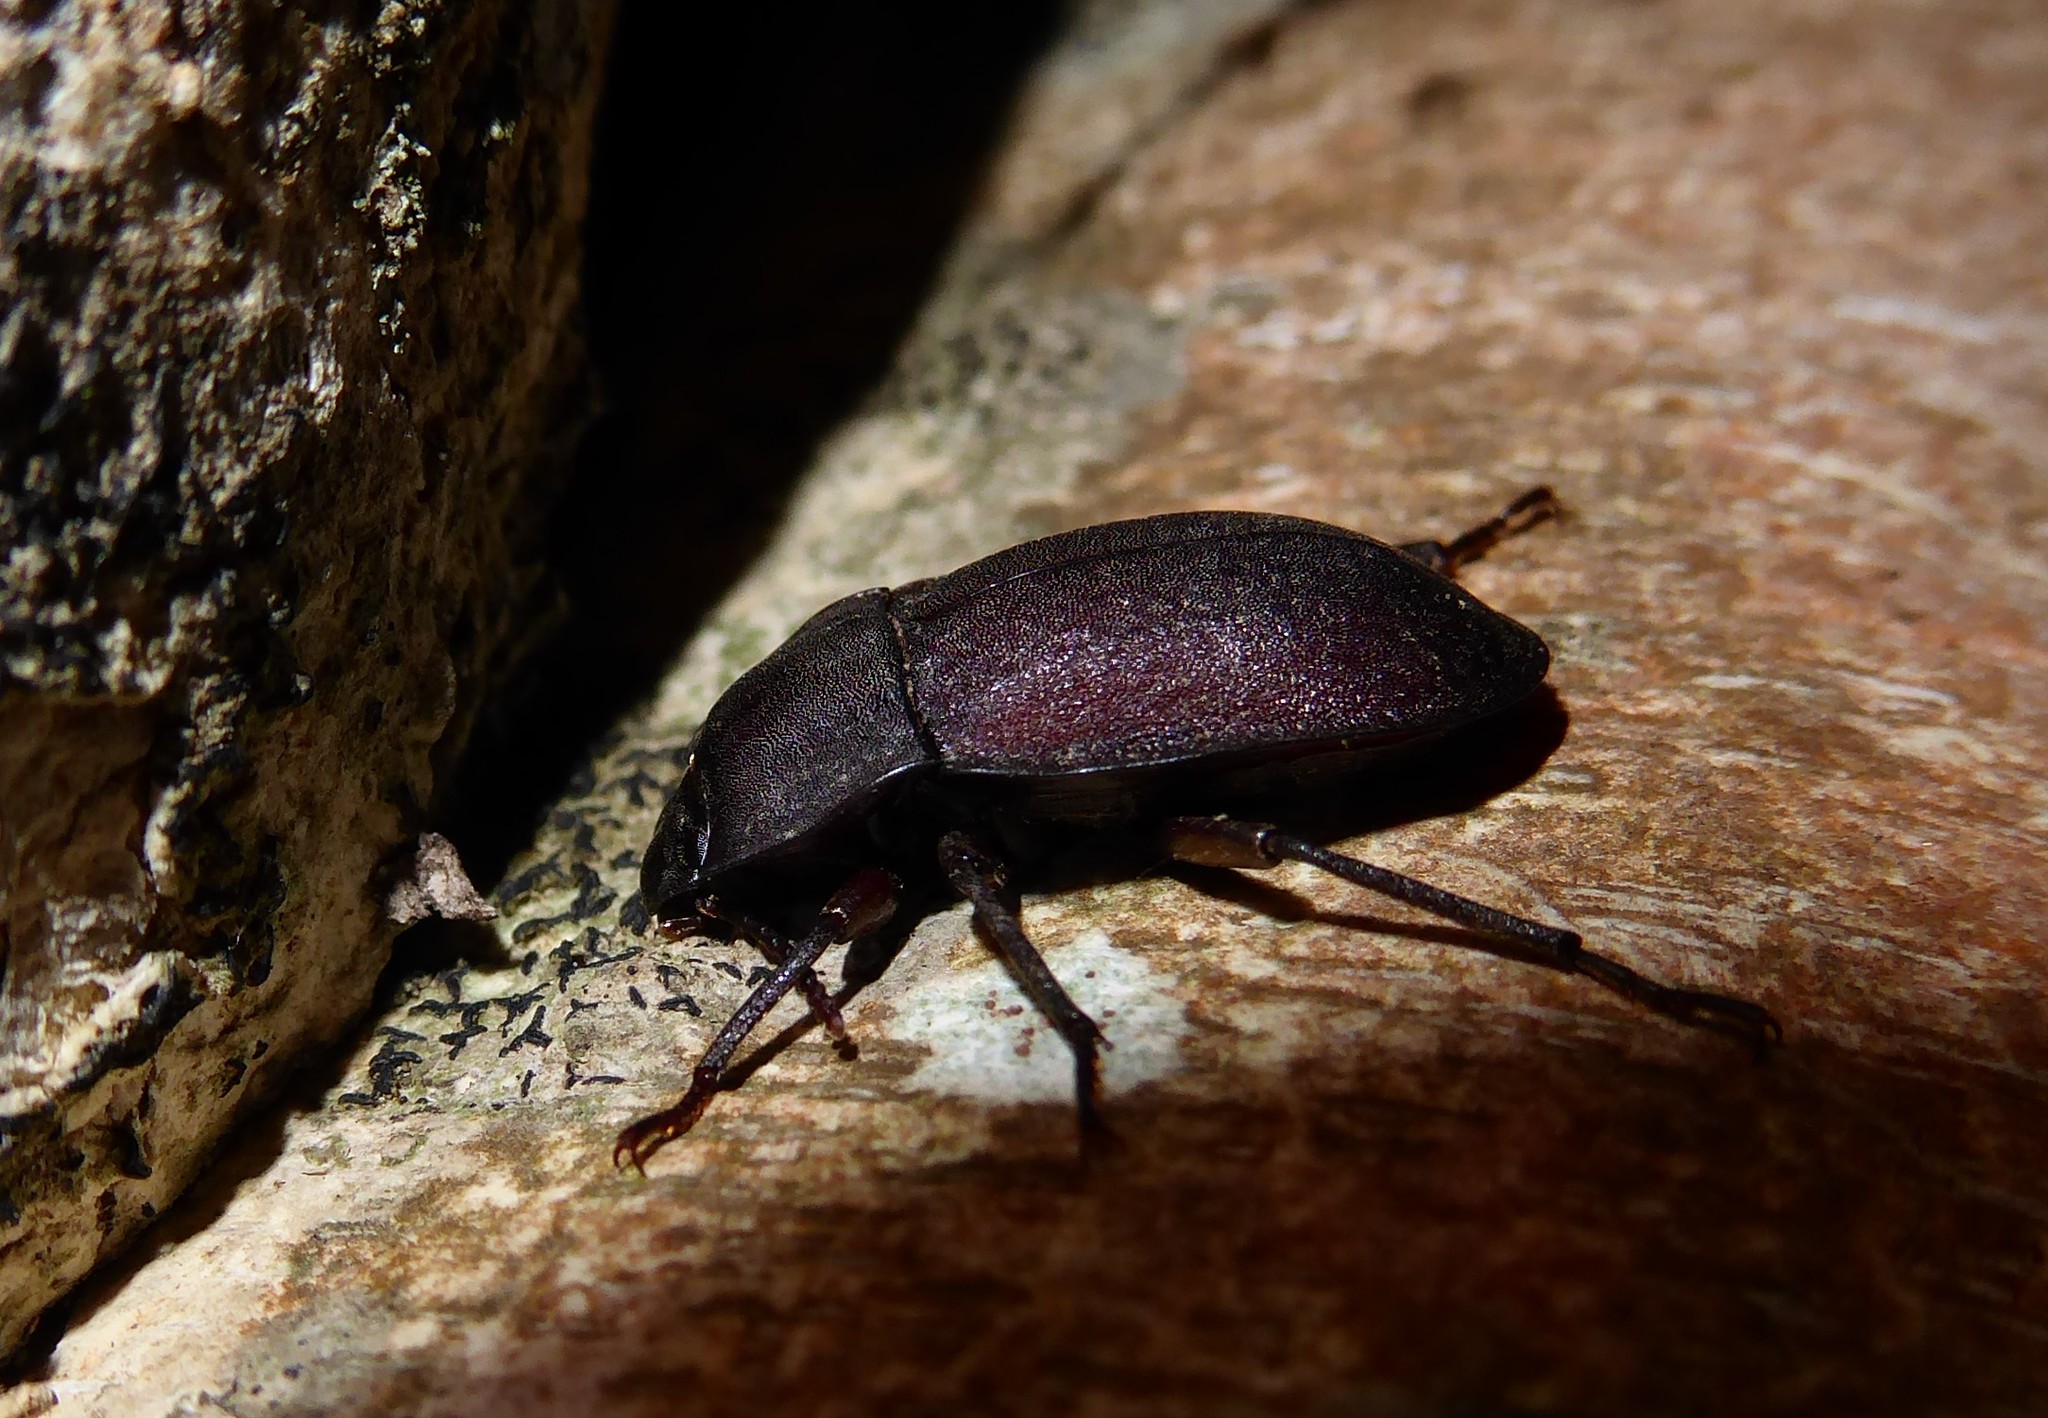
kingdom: Animalia
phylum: Arthropoda
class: Insecta
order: Coleoptera
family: Tenebrionidae
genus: Mimopeus
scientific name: Mimopeus
